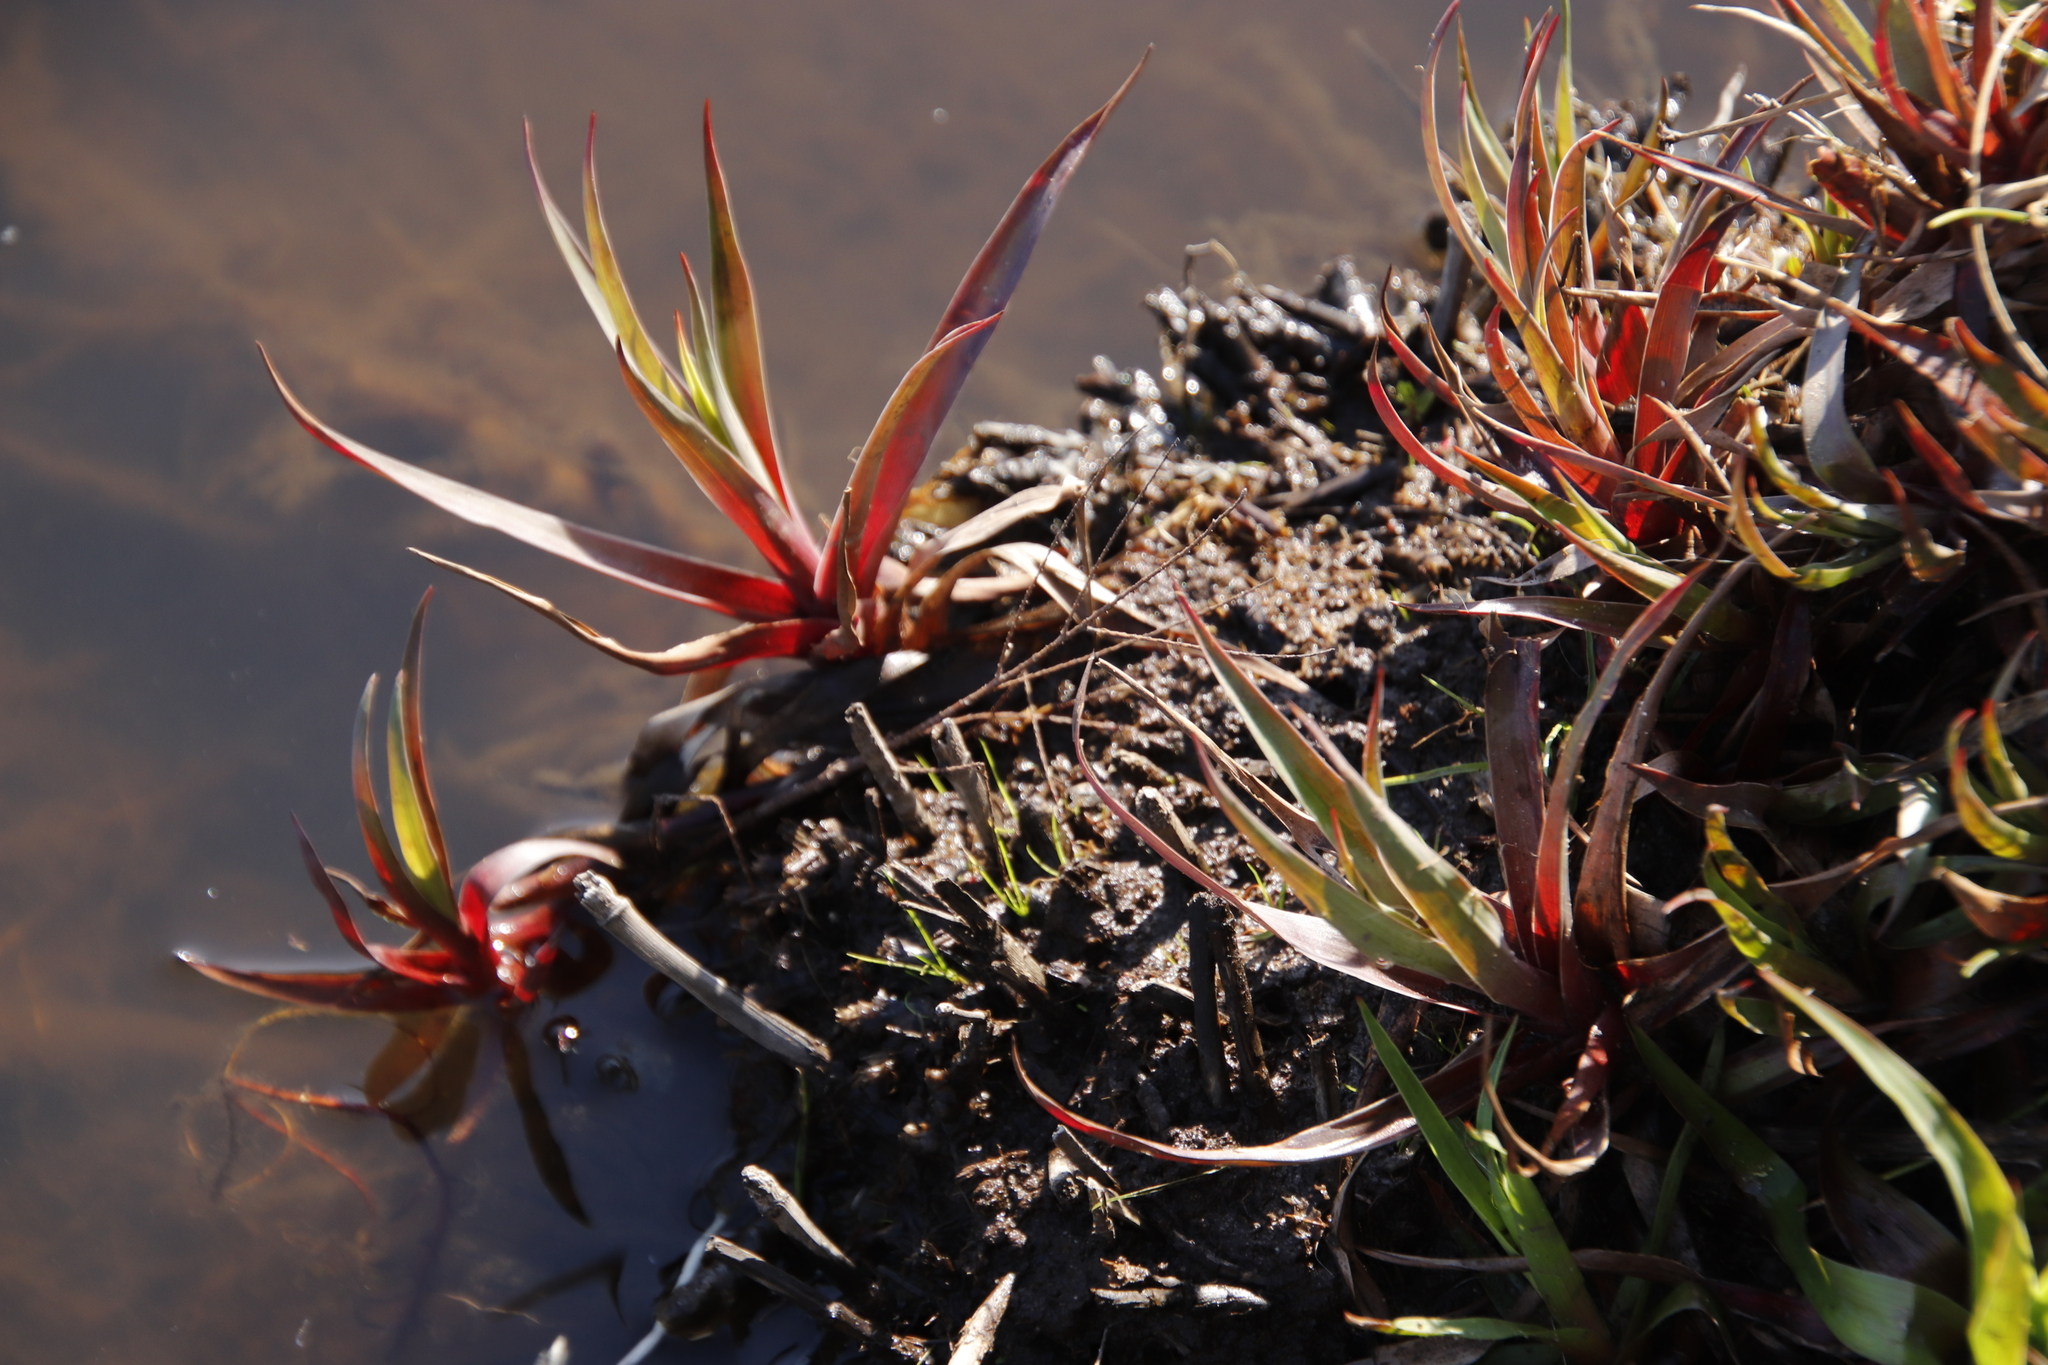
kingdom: Plantae
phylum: Tracheophyta
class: Liliopsida
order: Poales
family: Juncaceae
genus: Juncus
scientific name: Juncus lomatophyllus
